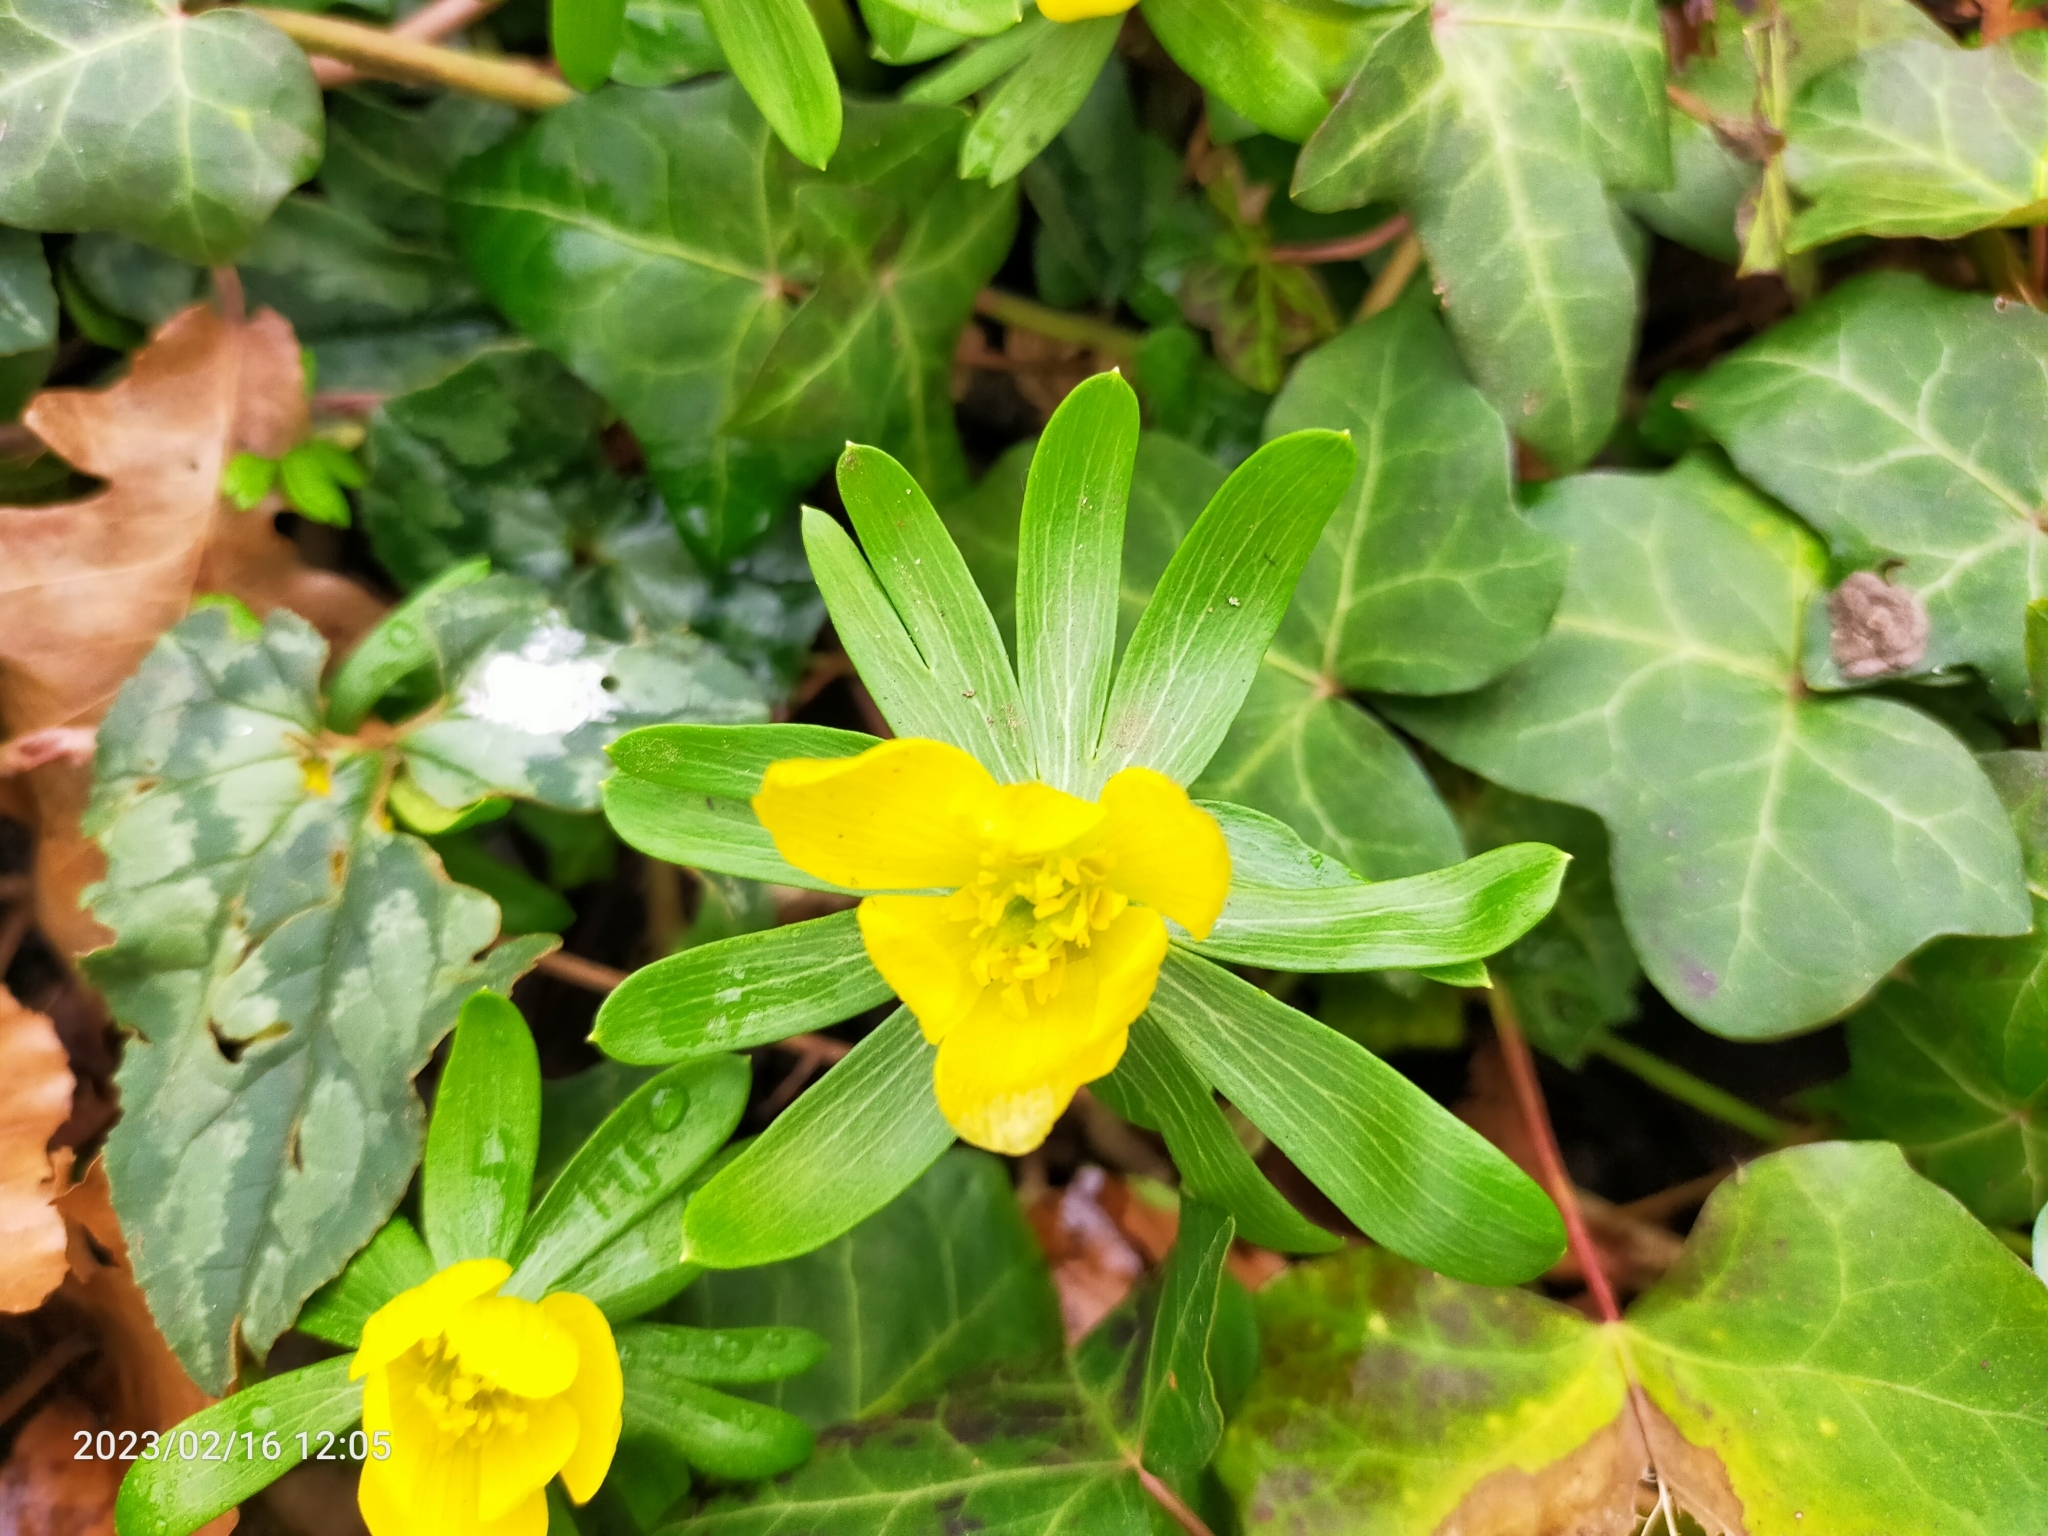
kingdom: Plantae
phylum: Tracheophyta
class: Magnoliopsida
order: Ranunculales
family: Ranunculaceae
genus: Eranthis
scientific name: Eranthis hyemalis
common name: Winter aconite
